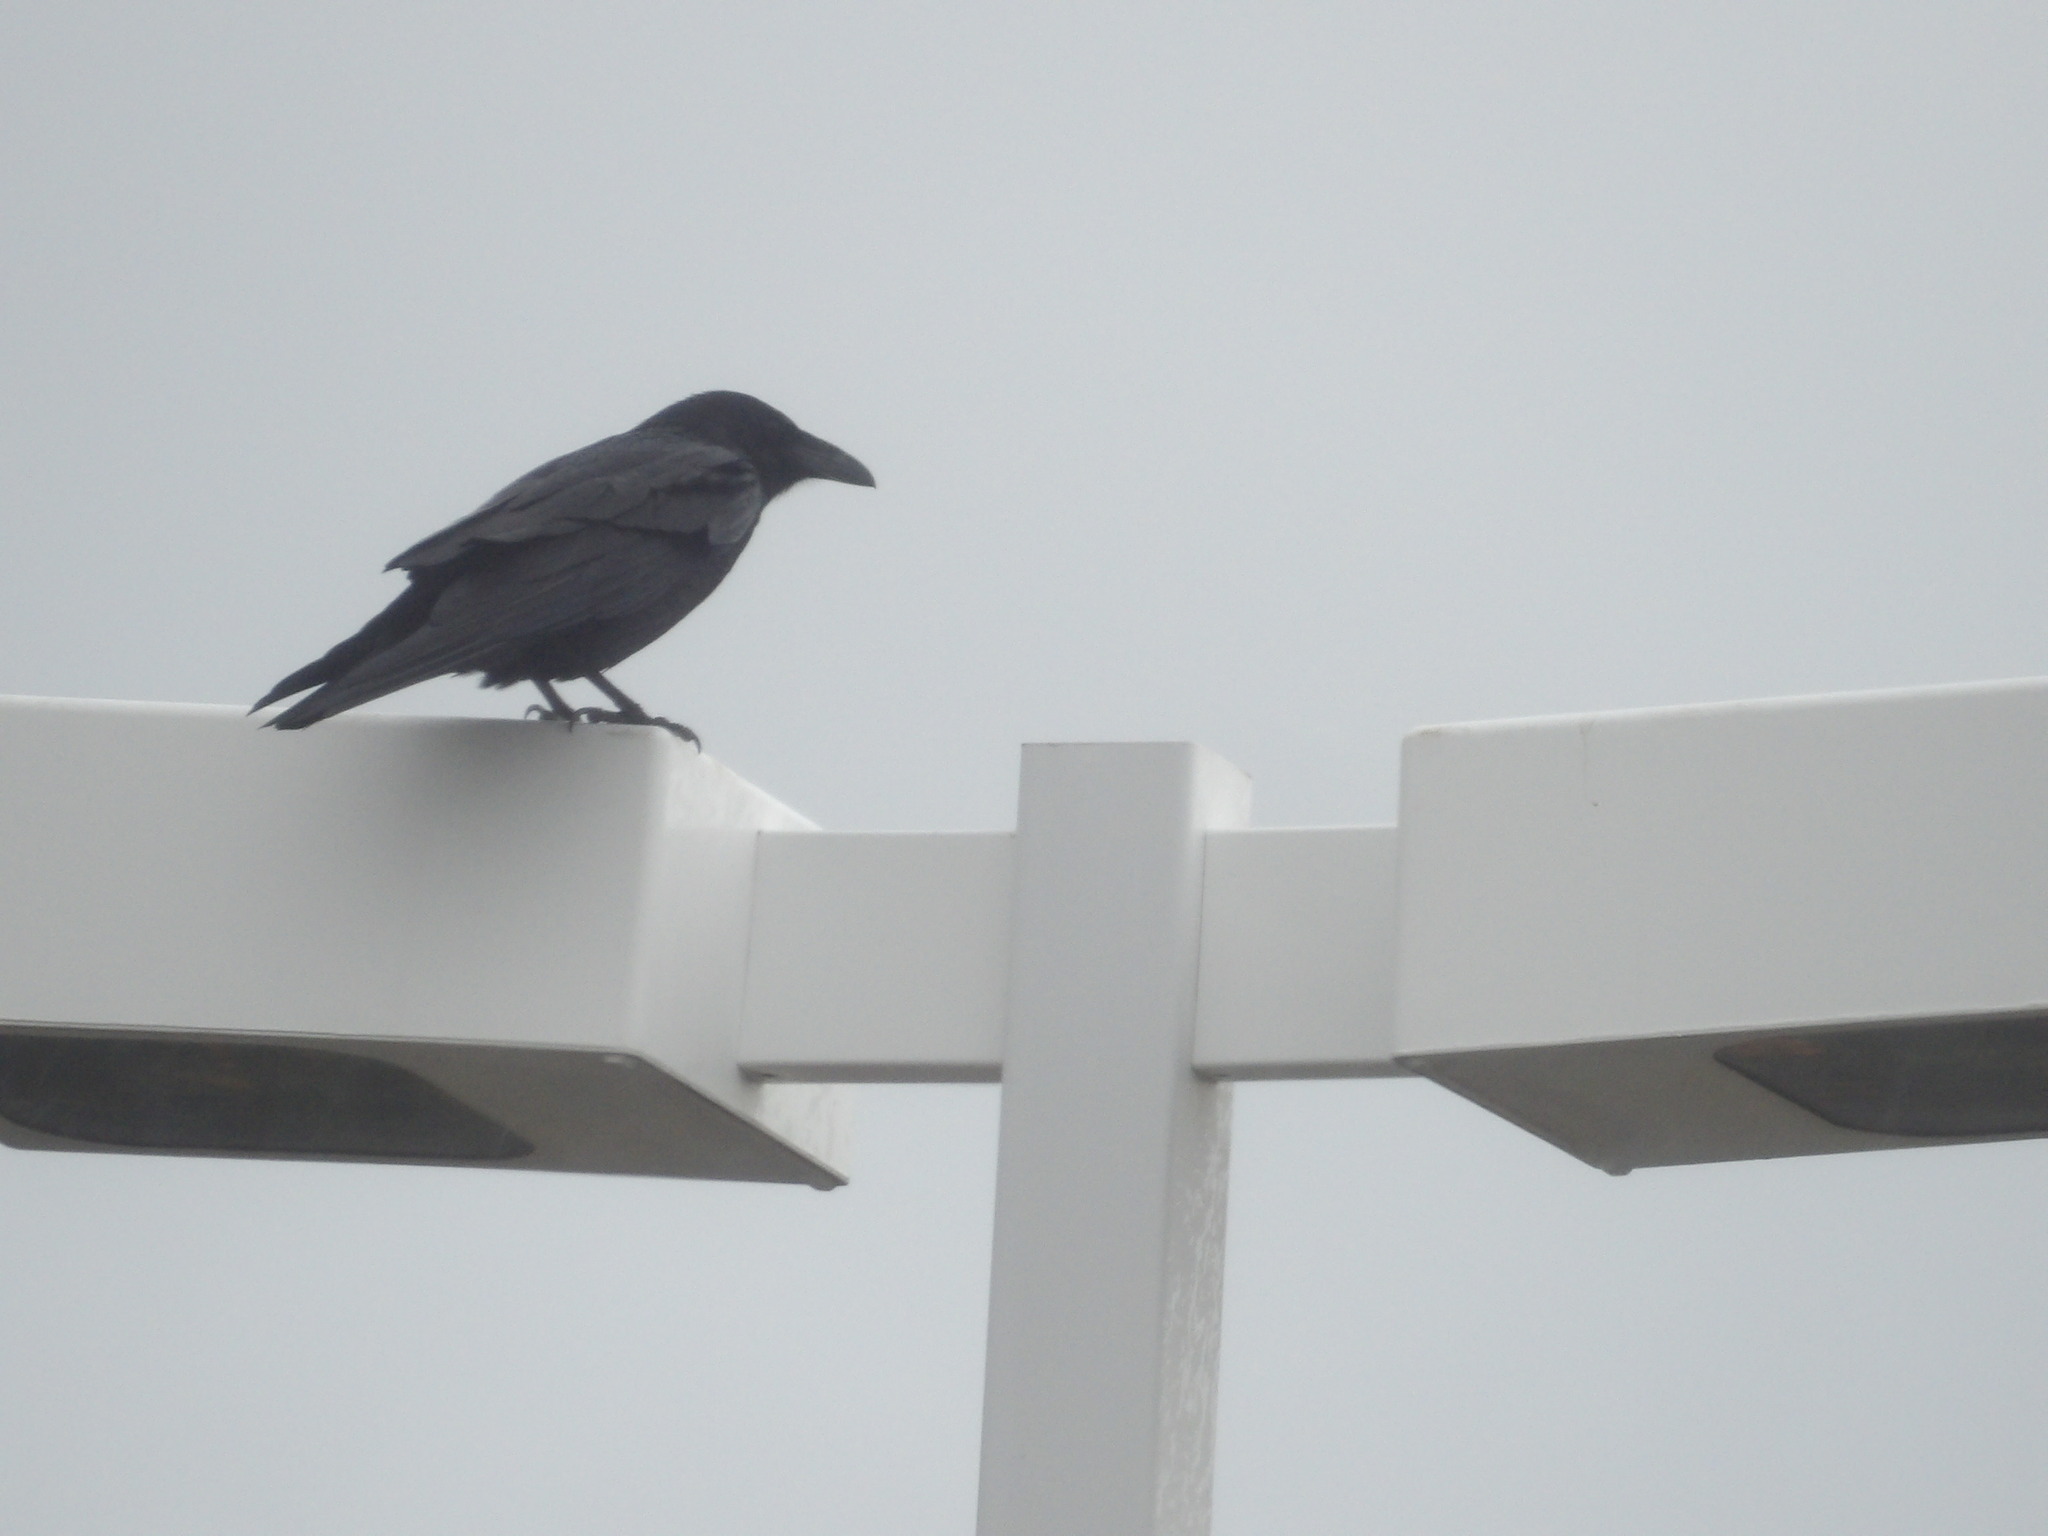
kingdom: Animalia
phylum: Chordata
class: Aves
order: Passeriformes
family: Corvidae
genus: Corvus
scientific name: Corvus corax
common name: Common raven
